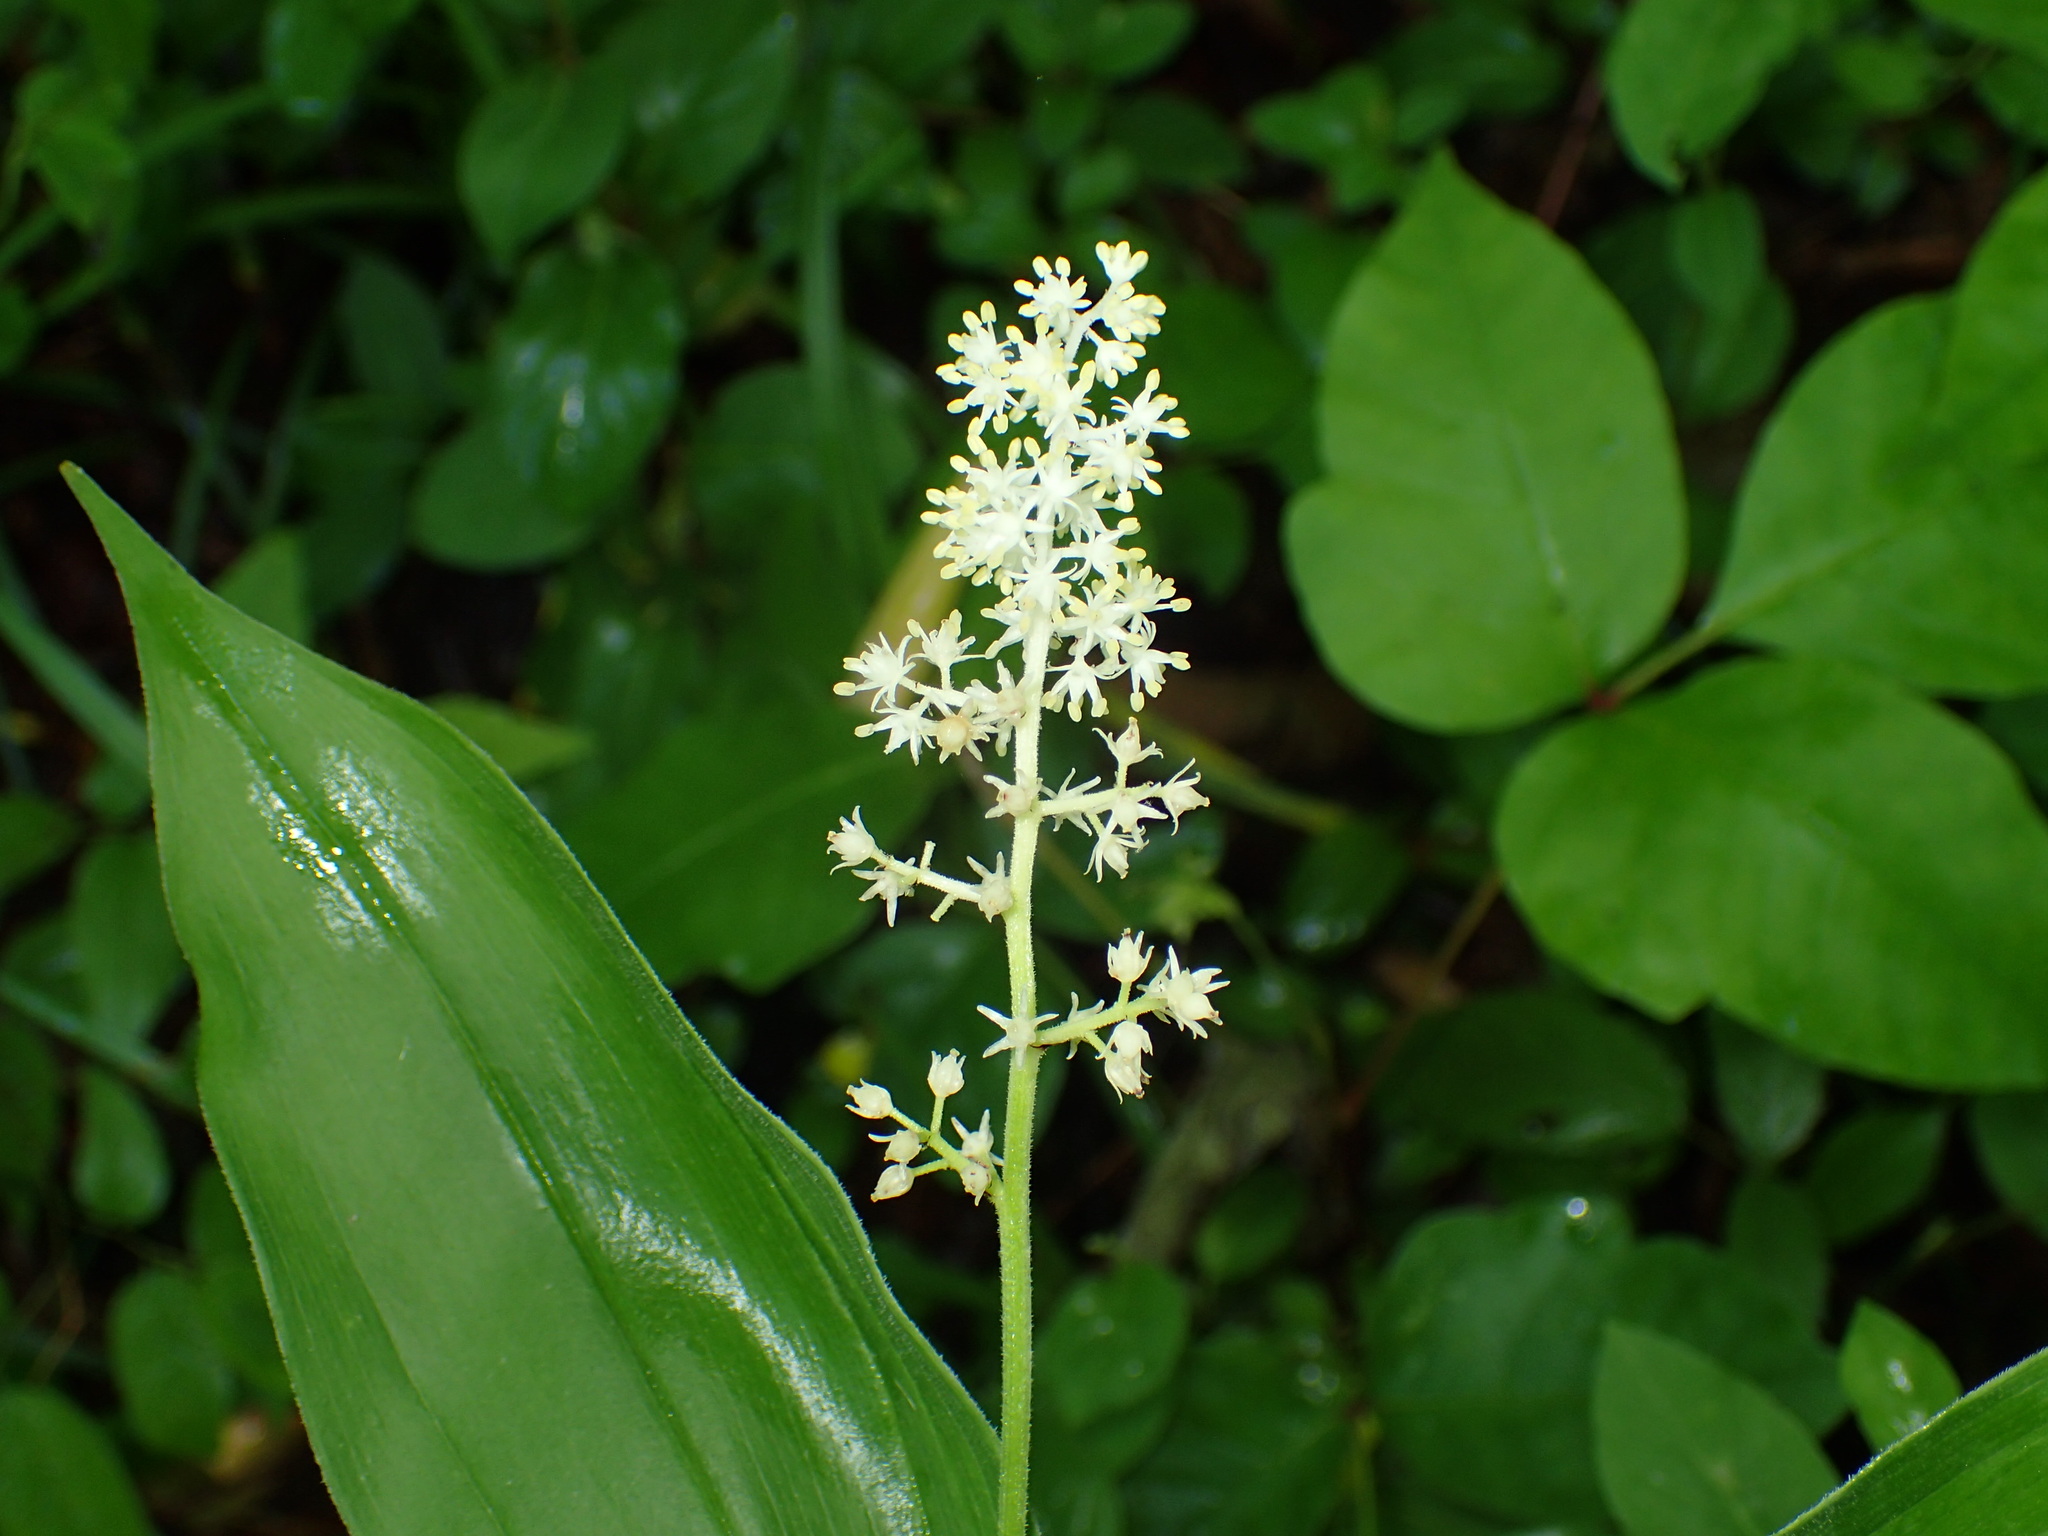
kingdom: Plantae
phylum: Tracheophyta
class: Liliopsida
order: Asparagales
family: Asparagaceae
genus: Maianthemum
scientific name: Maianthemum racemosum
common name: False spikenard
